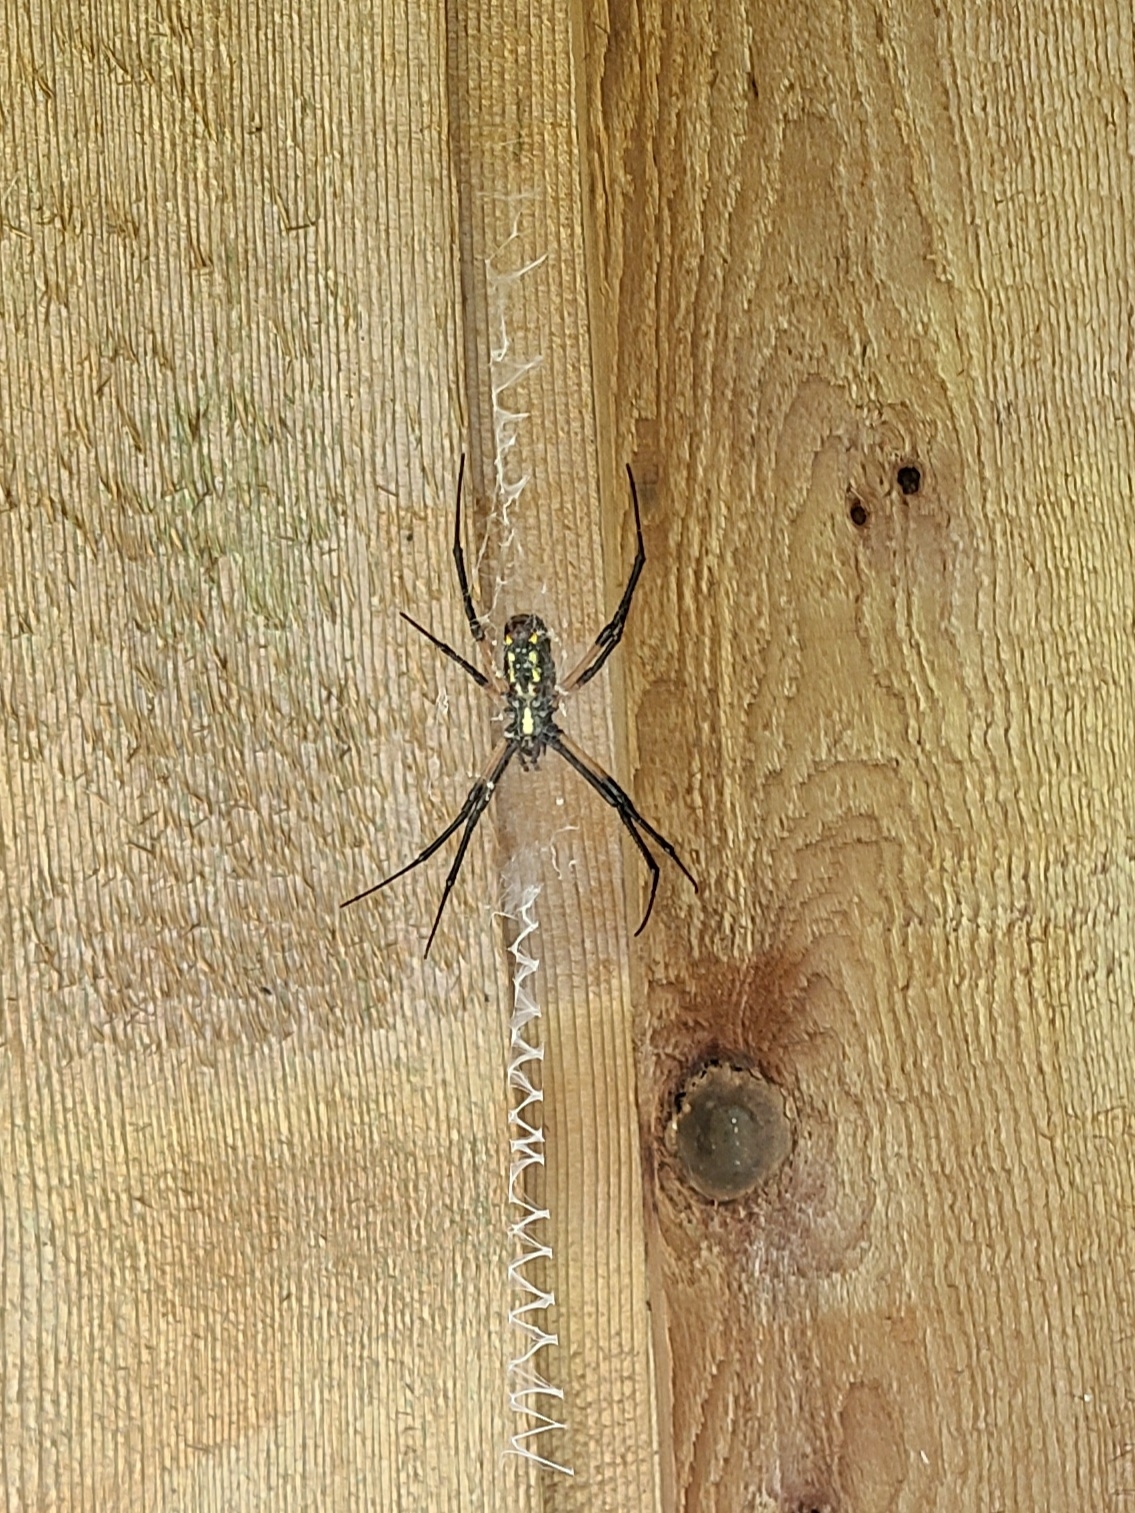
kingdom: Animalia
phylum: Arthropoda
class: Arachnida
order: Araneae
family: Araneidae
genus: Argiope
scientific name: Argiope aurantia
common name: Orb weavers
